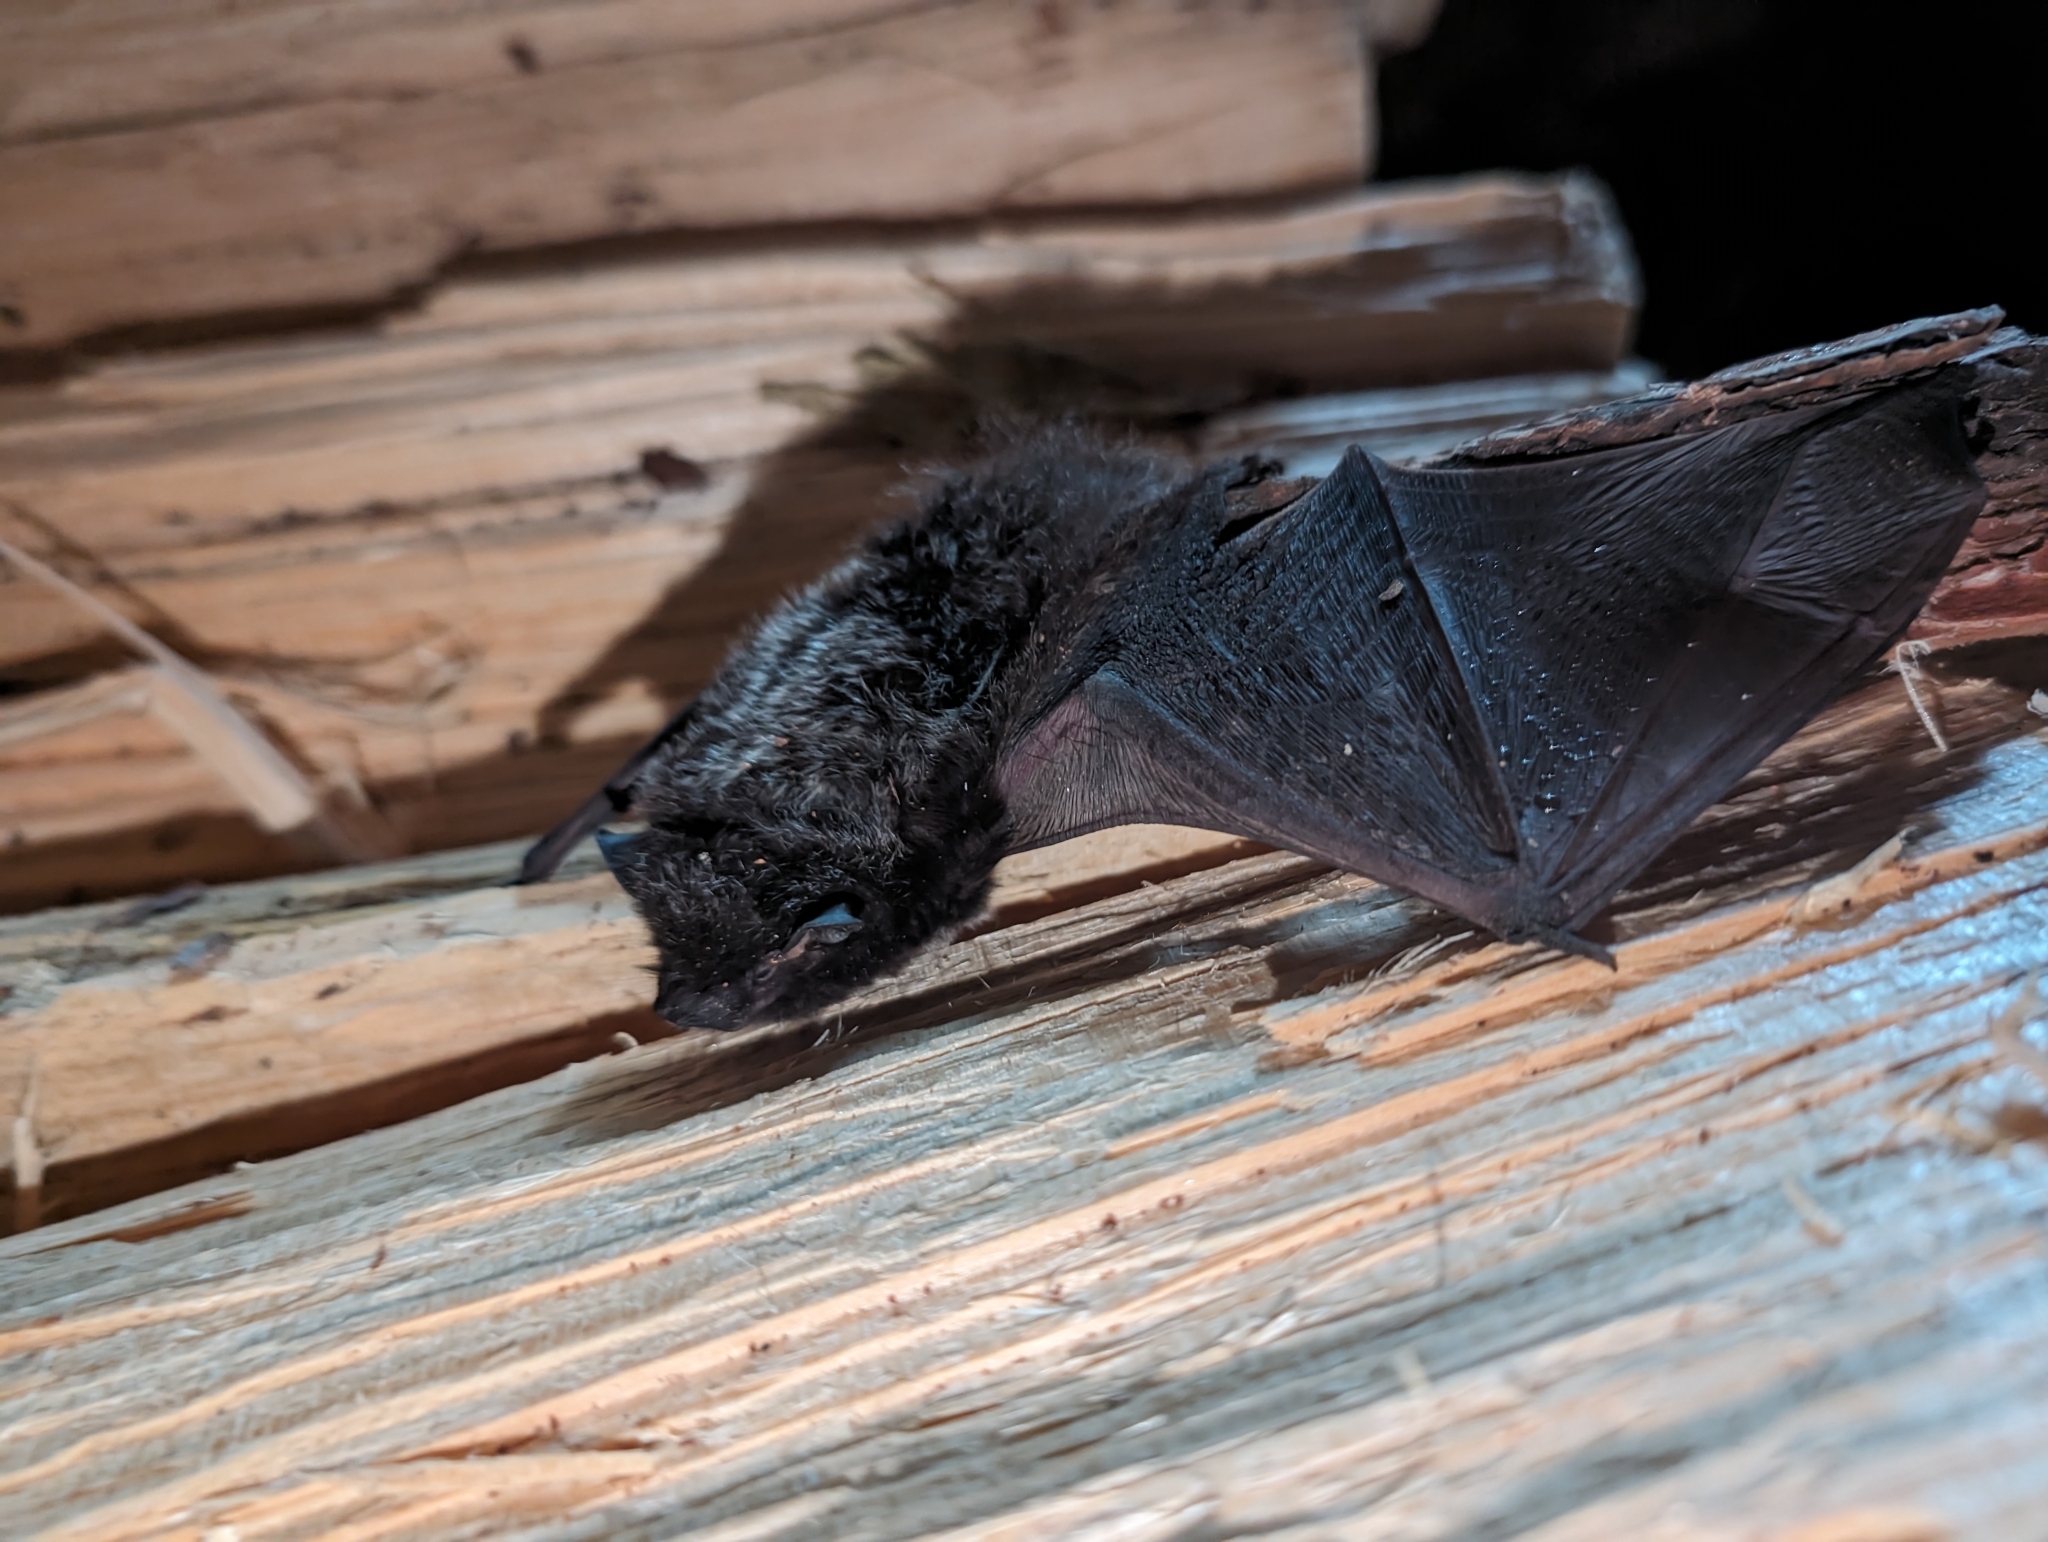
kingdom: Animalia
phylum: Chordata
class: Mammalia
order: Chiroptera
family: Vespertilionidae
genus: Lasionycteris
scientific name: Lasionycteris noctivagans
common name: Silver-haired bat
